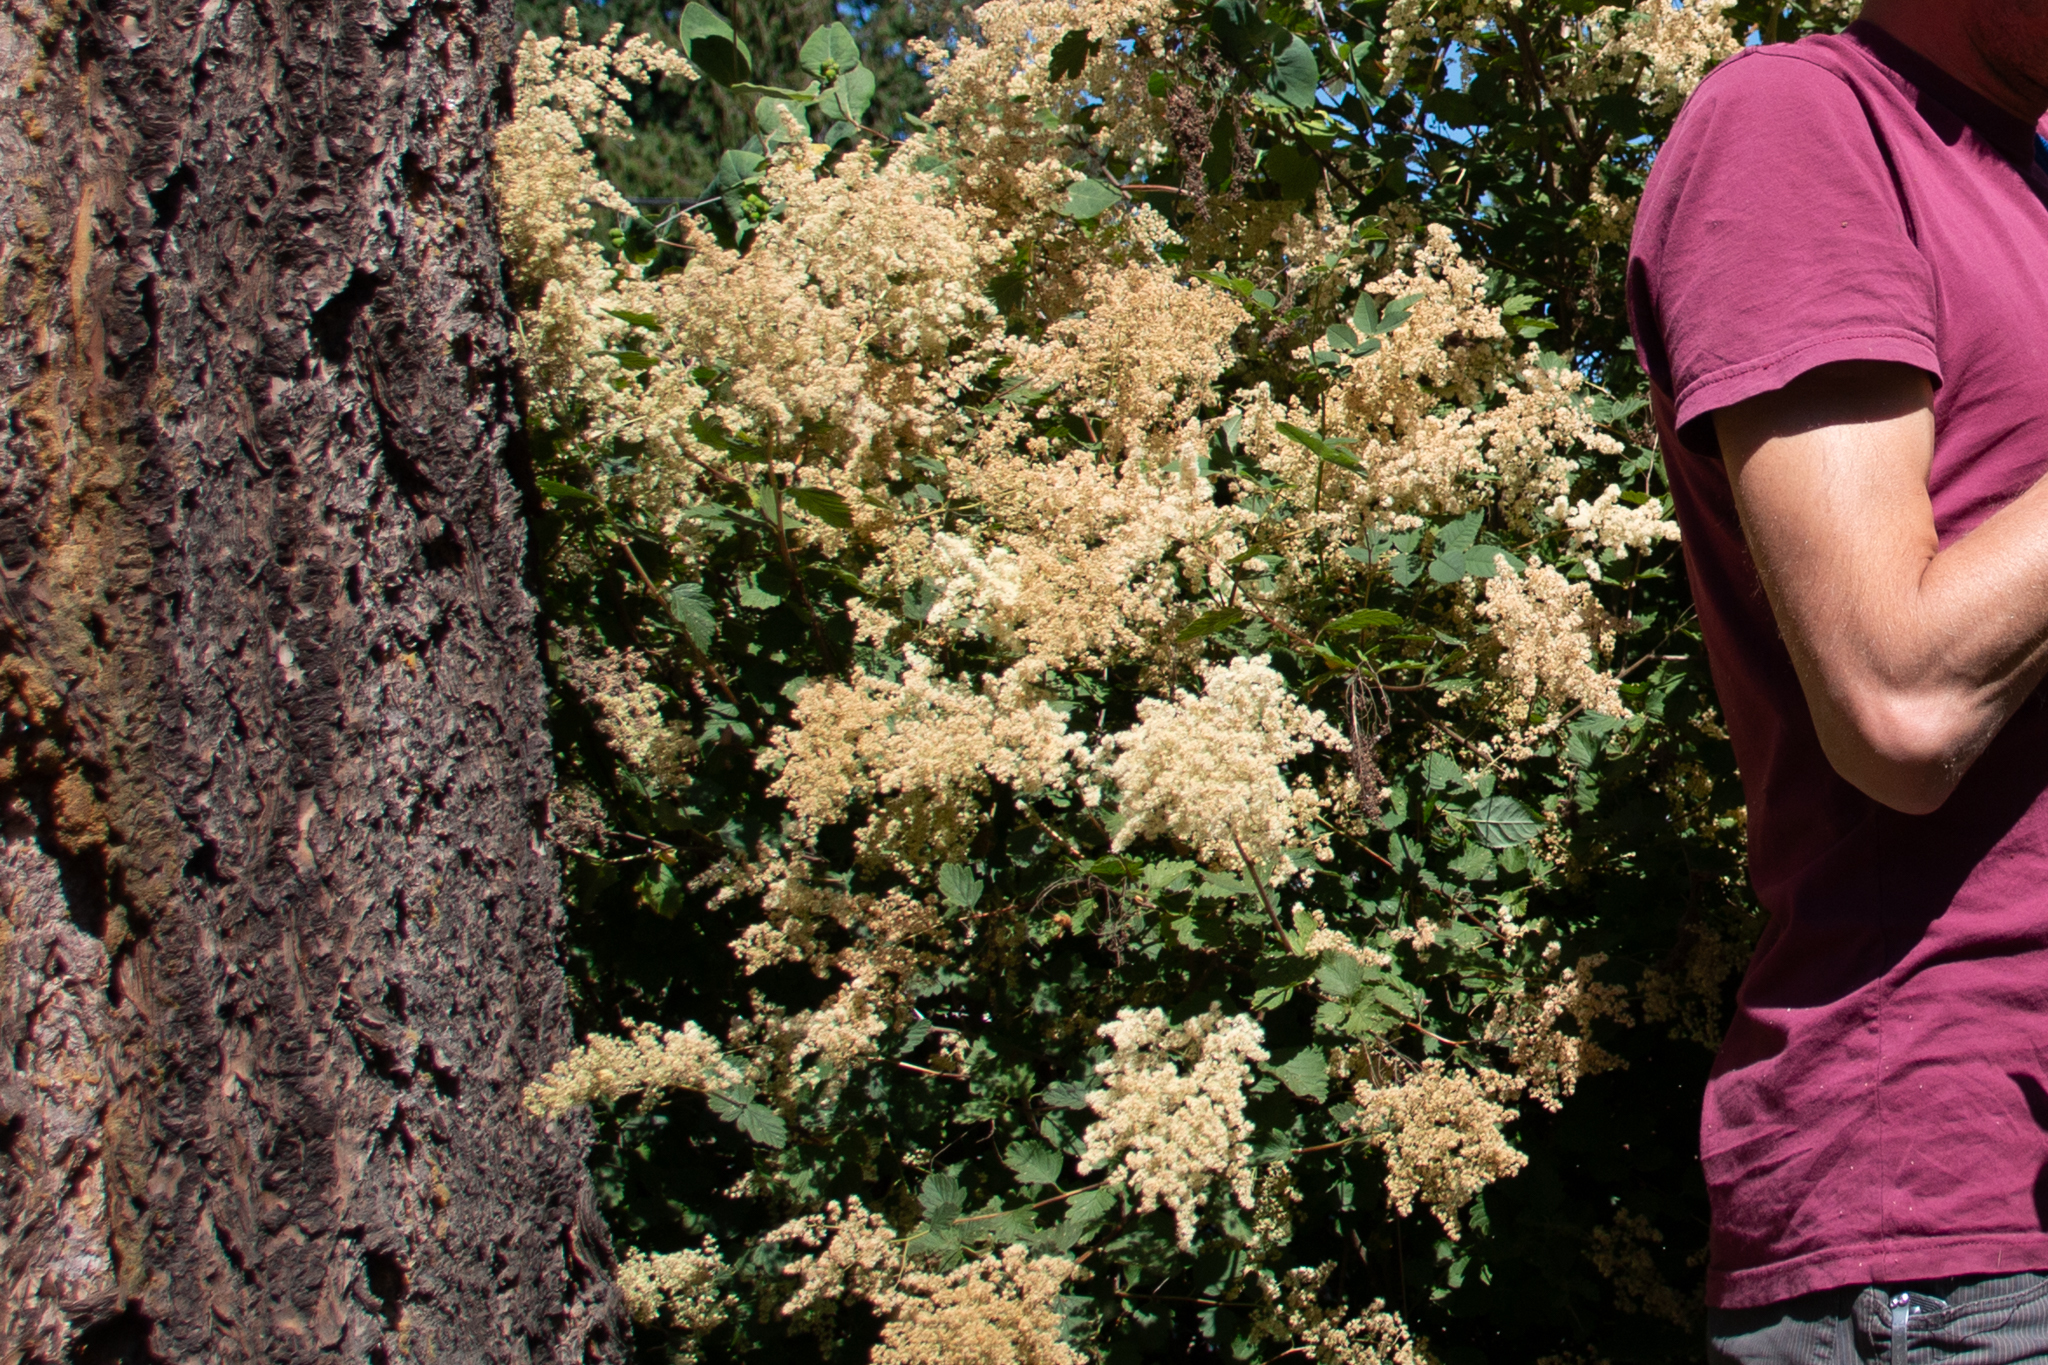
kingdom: Plantae
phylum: Tracheophyta
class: Magnoliopsida
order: Rosales
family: Rosaceae
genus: Holodiscus
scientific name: Holodiscus discolor
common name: Oceanspray
